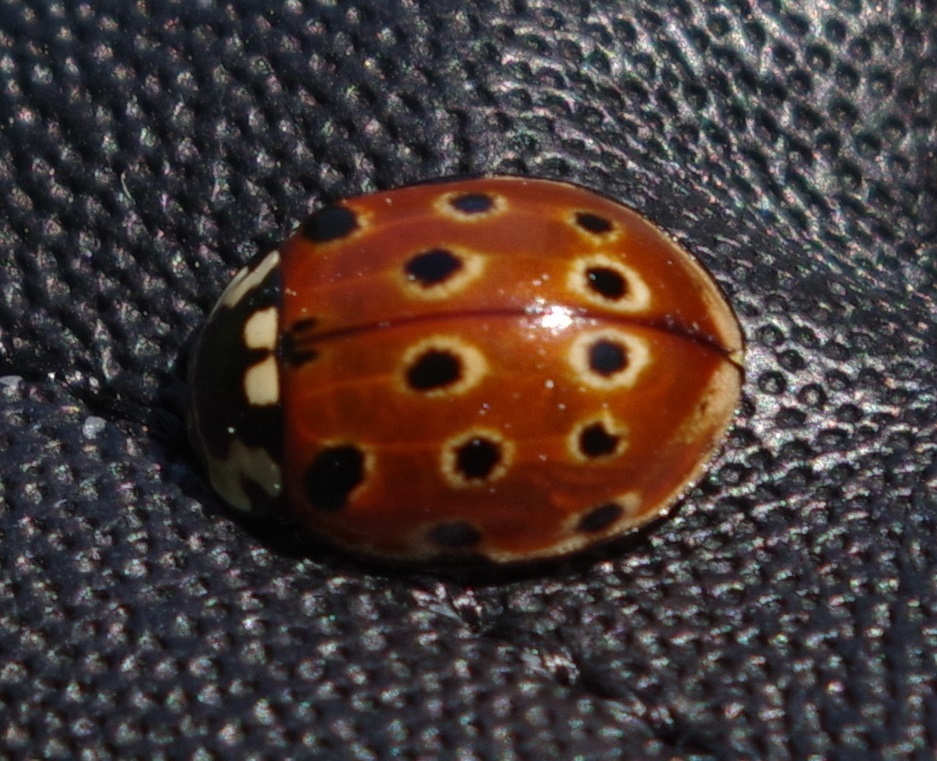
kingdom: Animalia
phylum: Arthropoda
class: Insecta
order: Coleoptera
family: Coccinellidae
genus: Anatis
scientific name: Anatis ocellata
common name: Eyed ladybird
